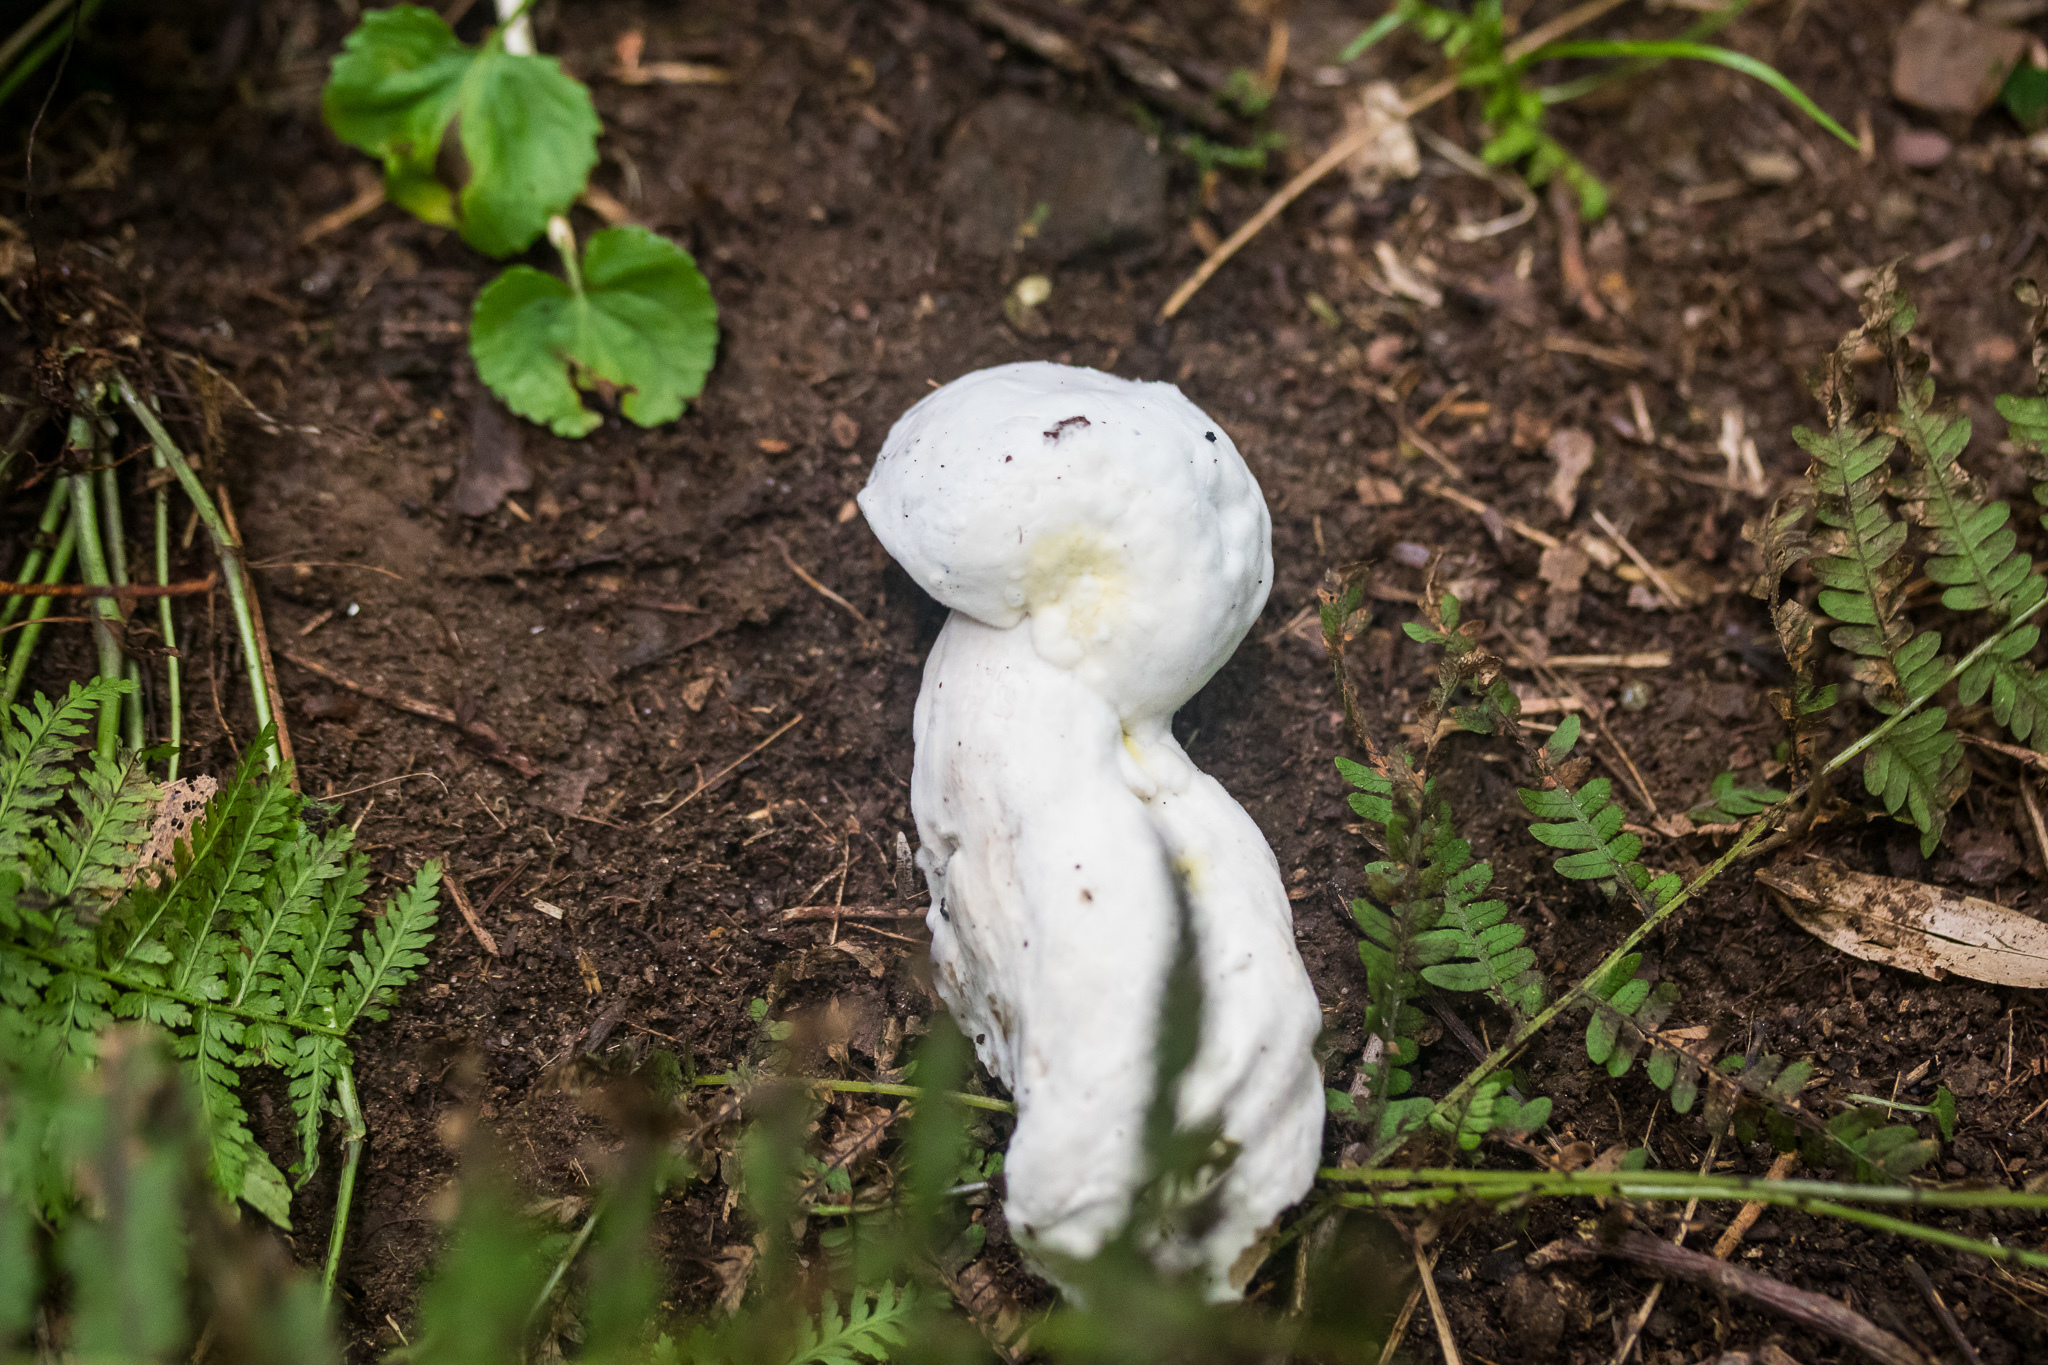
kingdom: Fungi
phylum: Ascomycota
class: Sordariomycetes
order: Hypocreales
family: Hypocreaceae
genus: Hypomyces
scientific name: Hypomyces chrysospermus
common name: Bolete mould
